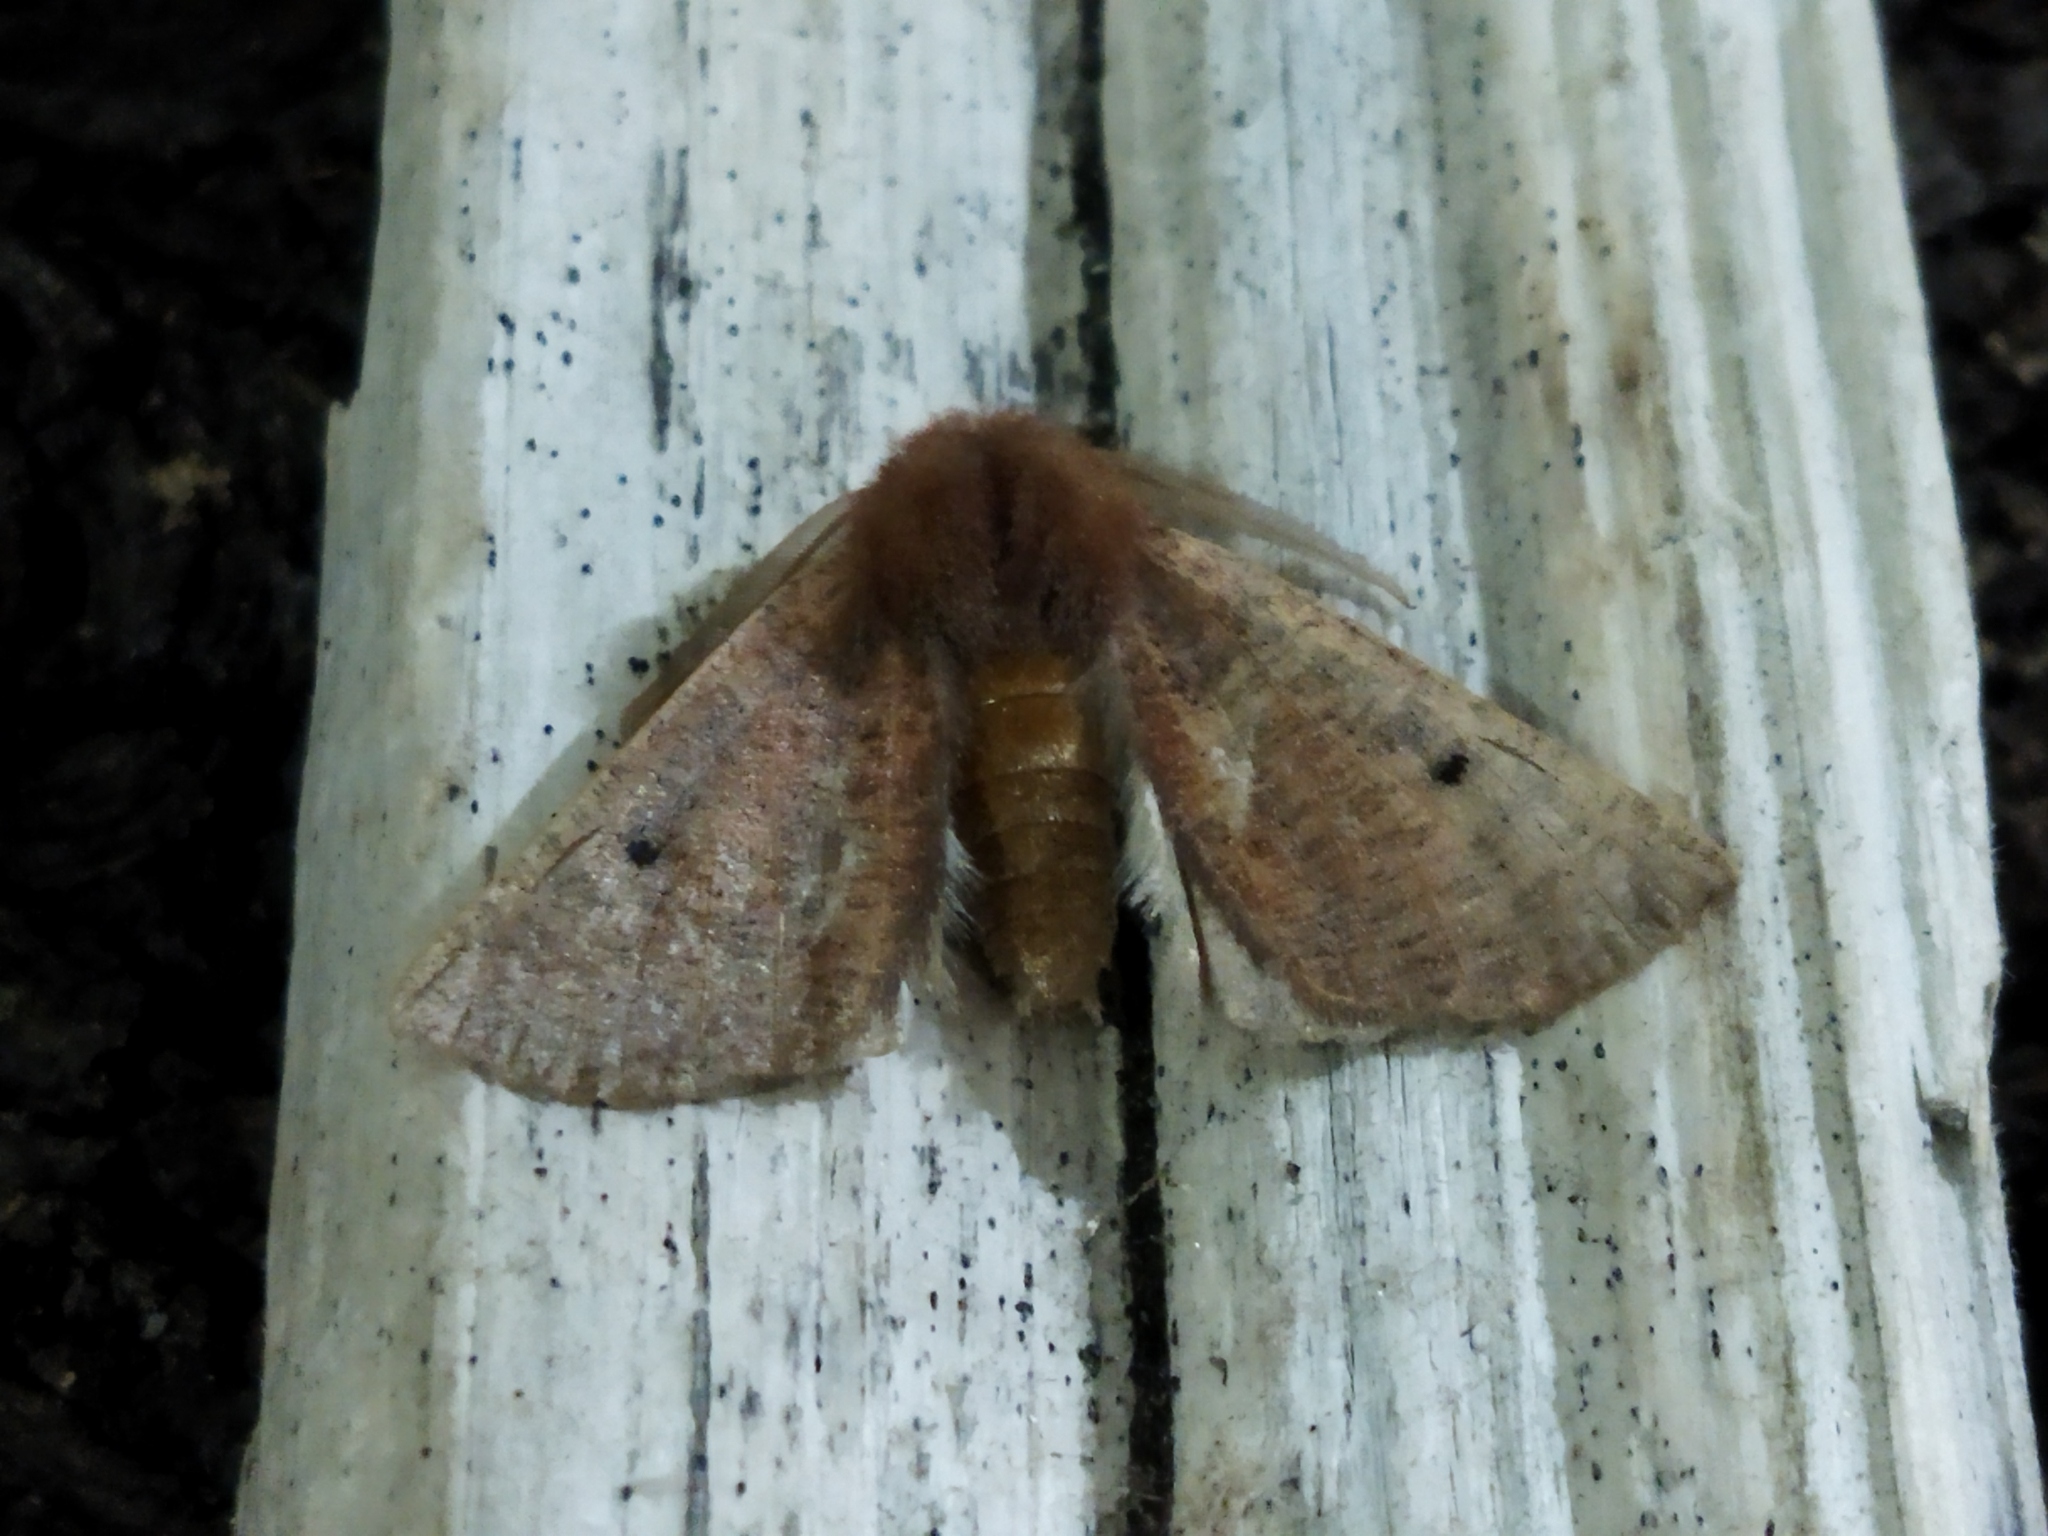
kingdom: Animalia
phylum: Arthropoda
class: Insecta
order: Lepidoptera
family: Geometridae
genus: Dasycorsa
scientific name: Dasycorsa modesta
